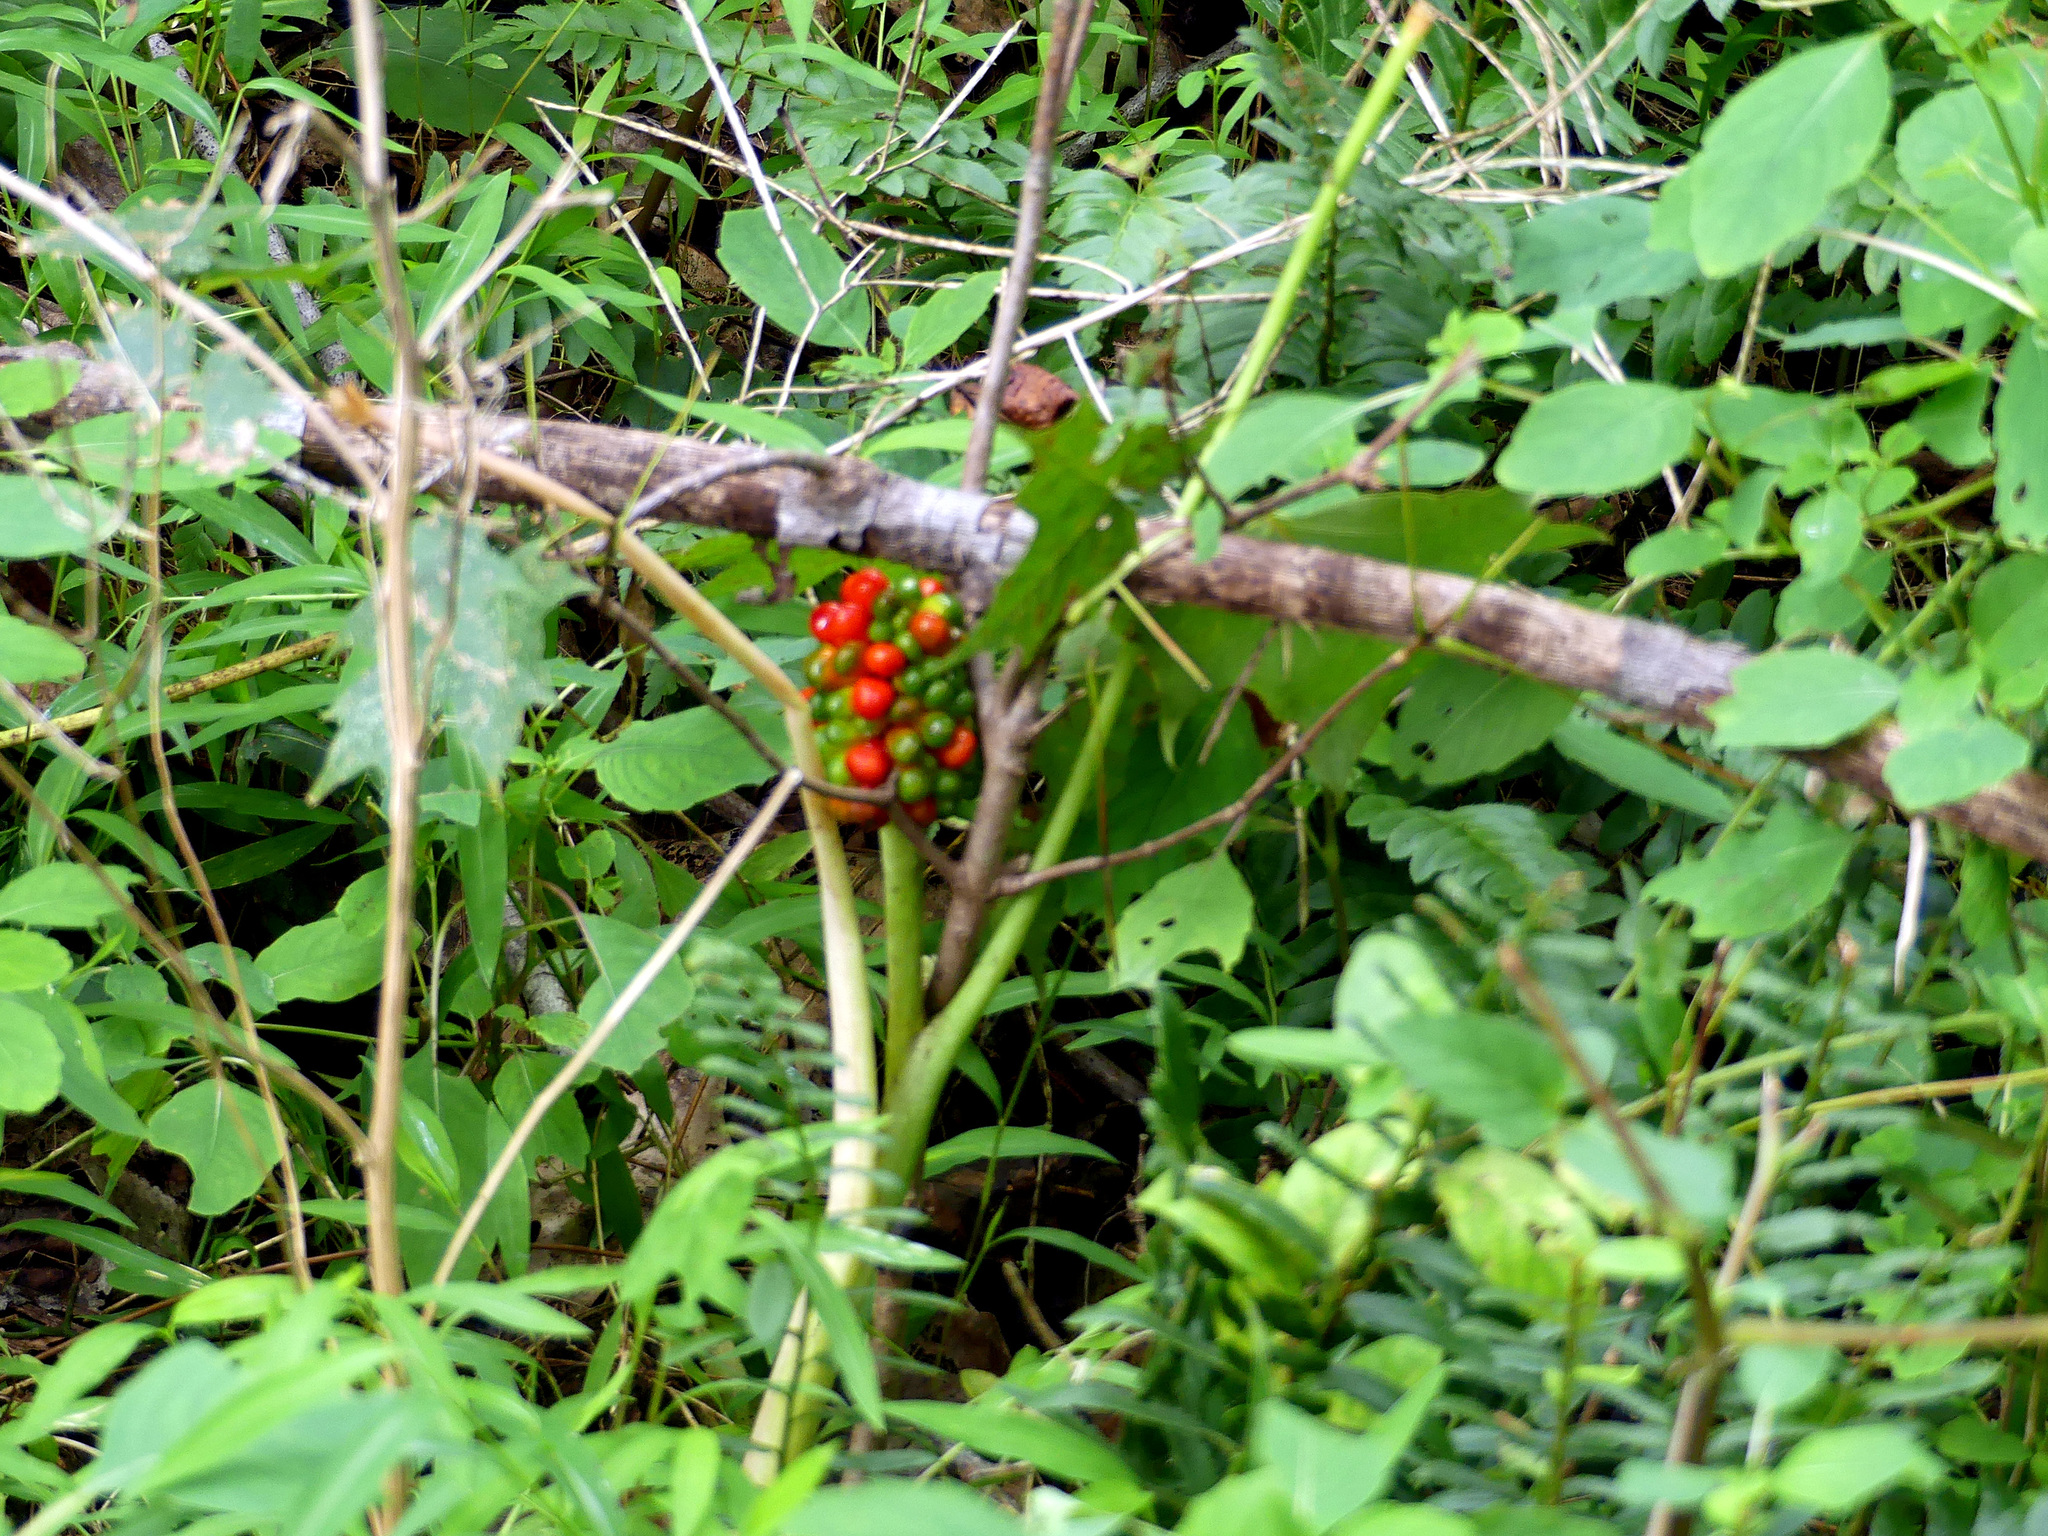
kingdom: Plantae
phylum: Tracheophyta
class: Liliopsida
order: Alismatales
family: Araceae
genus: Arisaema
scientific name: Arisaema triphyllum
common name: Jack-in-the-pulpit
